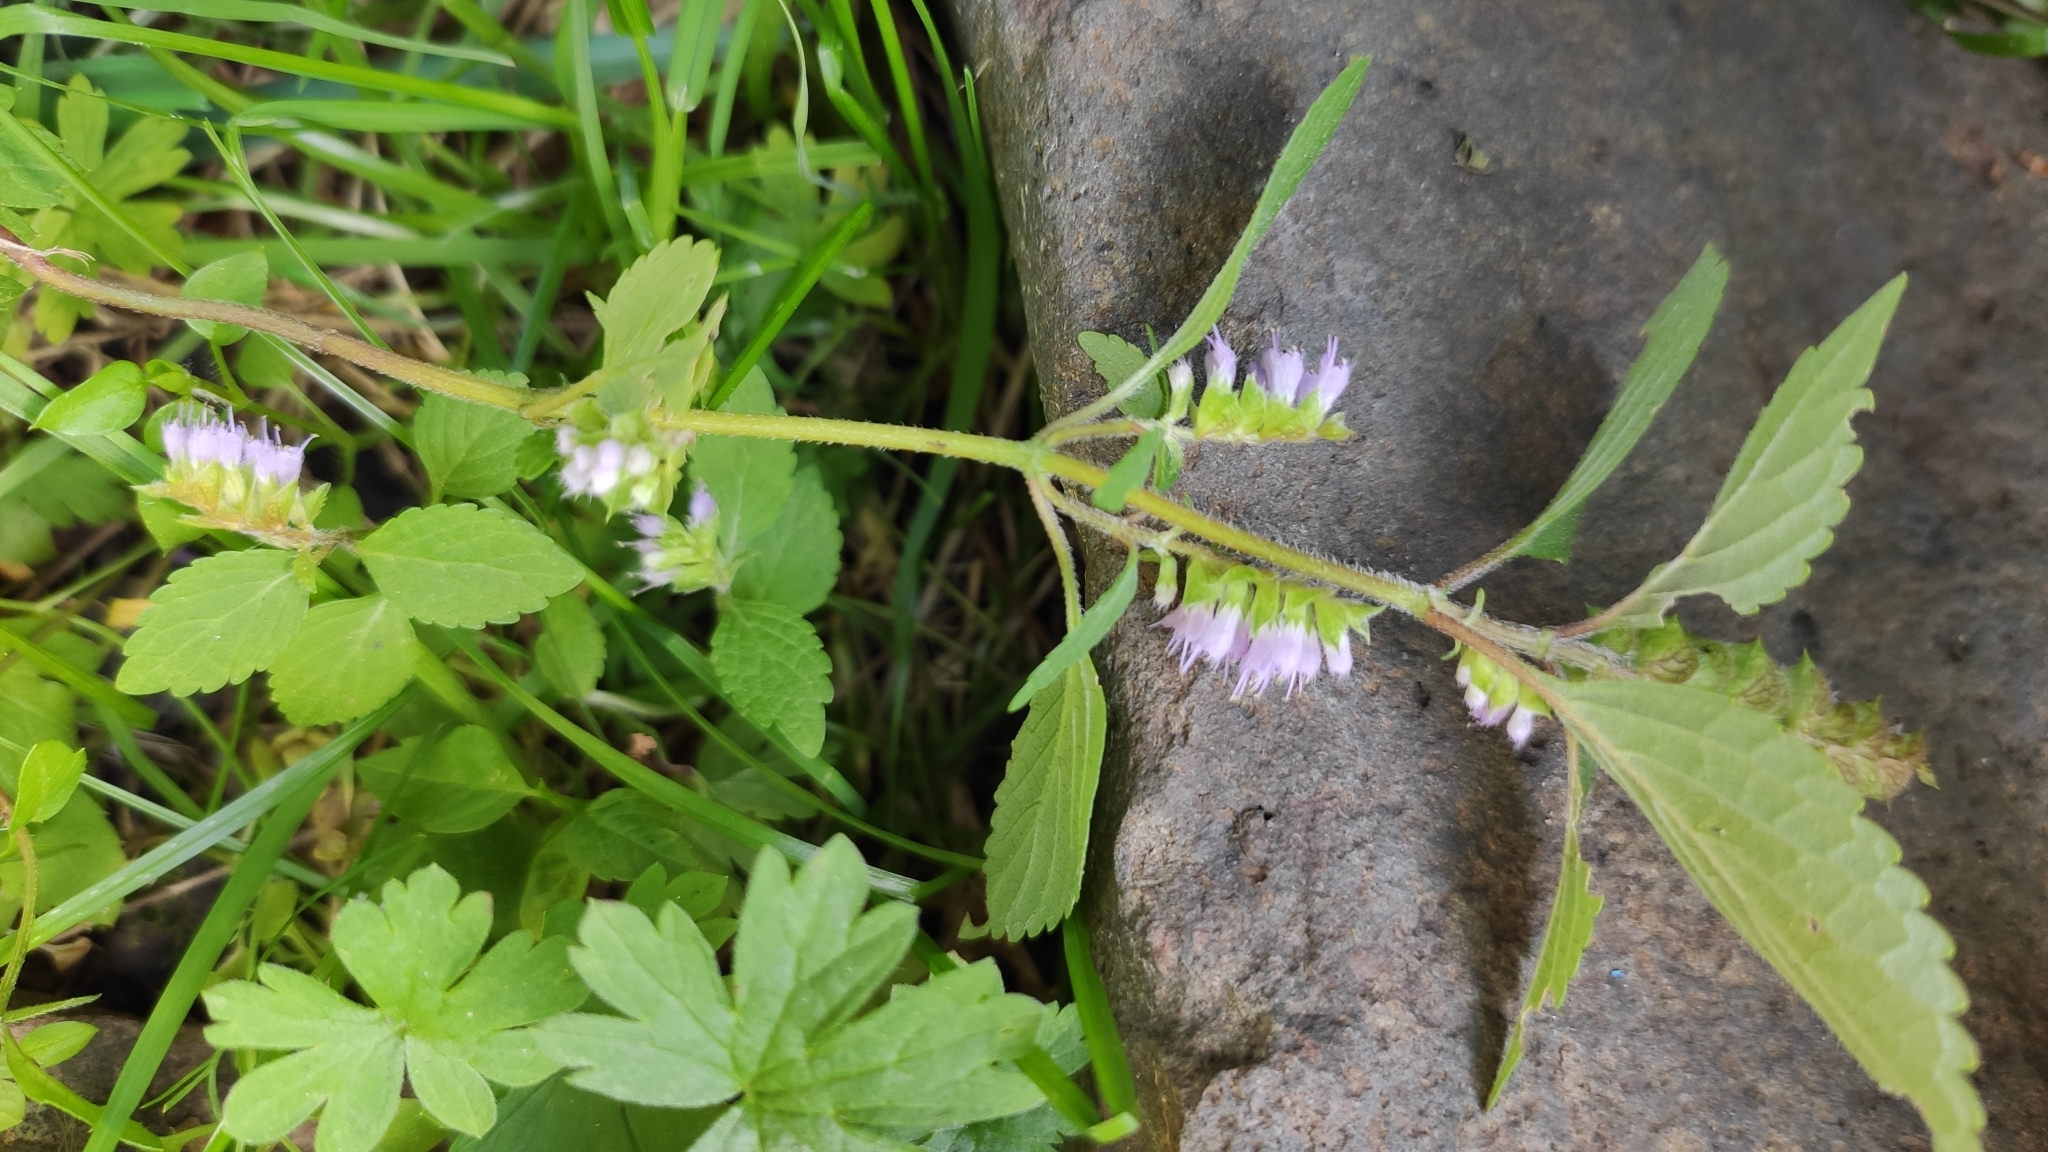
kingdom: Plantae
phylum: Tracheophyta
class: Magnoliopsida
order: Lamiales
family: Lamiaceae
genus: Elsholtzia
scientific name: Elsholtzia ciliata
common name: Ciliate elsholtzia
